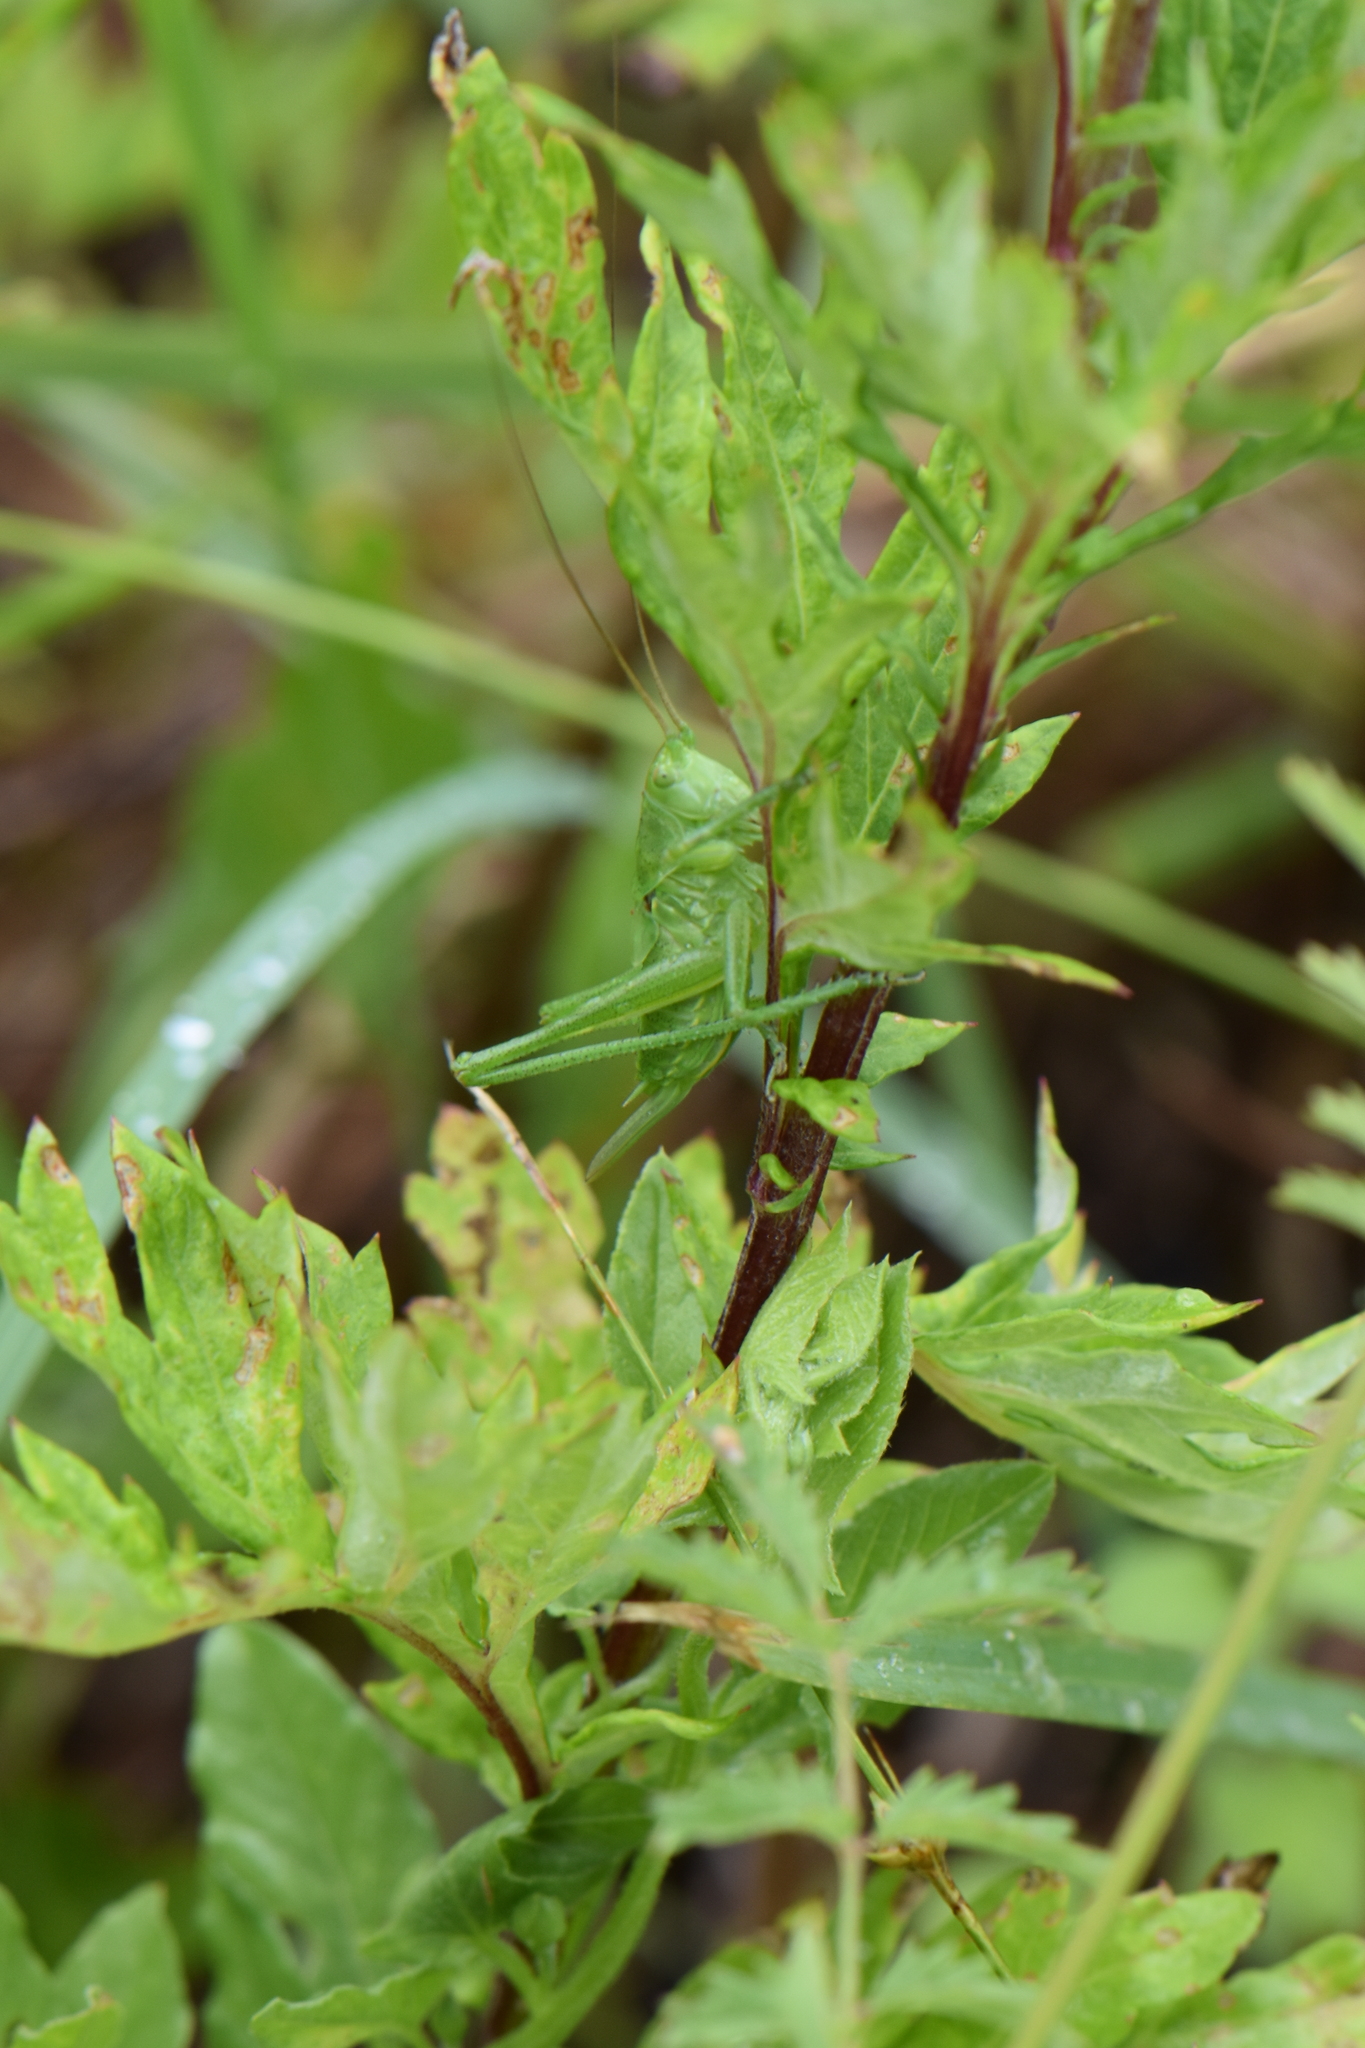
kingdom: Animalia
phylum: Arthropoda
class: Insecta
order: Orthoptera
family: Tettigoniidae
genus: Tettigonia
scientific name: Tettigonia viridissima
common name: Great green bush-cricket
